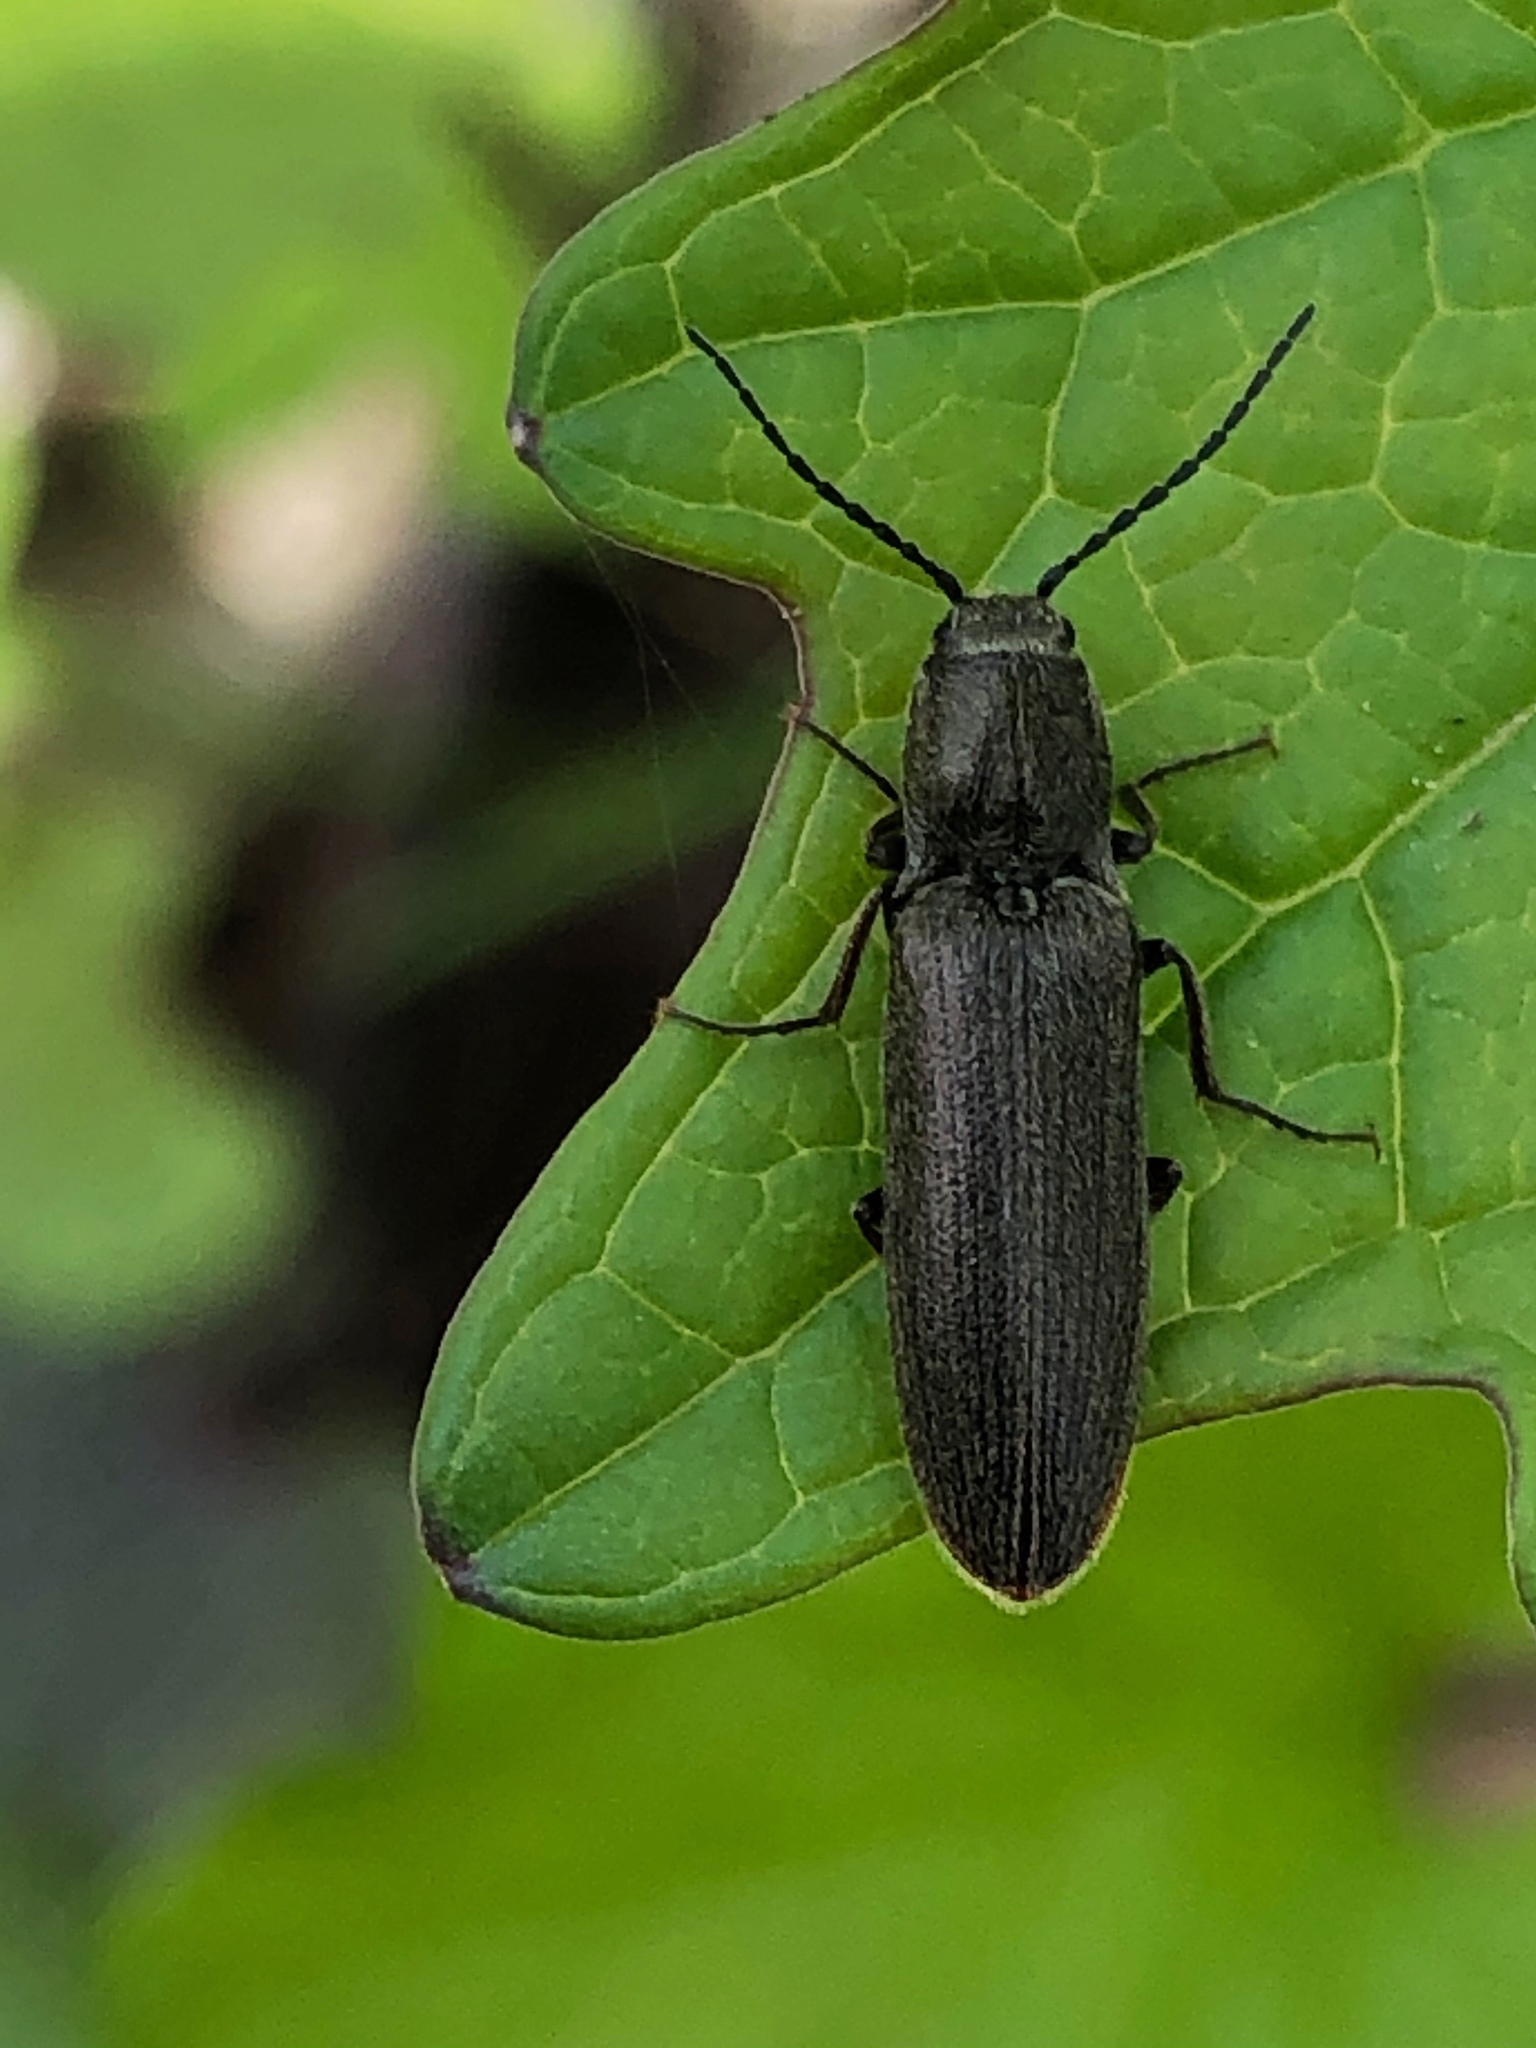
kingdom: Animalia
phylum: Arthropoda
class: Insecta
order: Coleoptera
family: Elateridae
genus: Sylvanelater
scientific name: Sylvanelater cylindriformis
